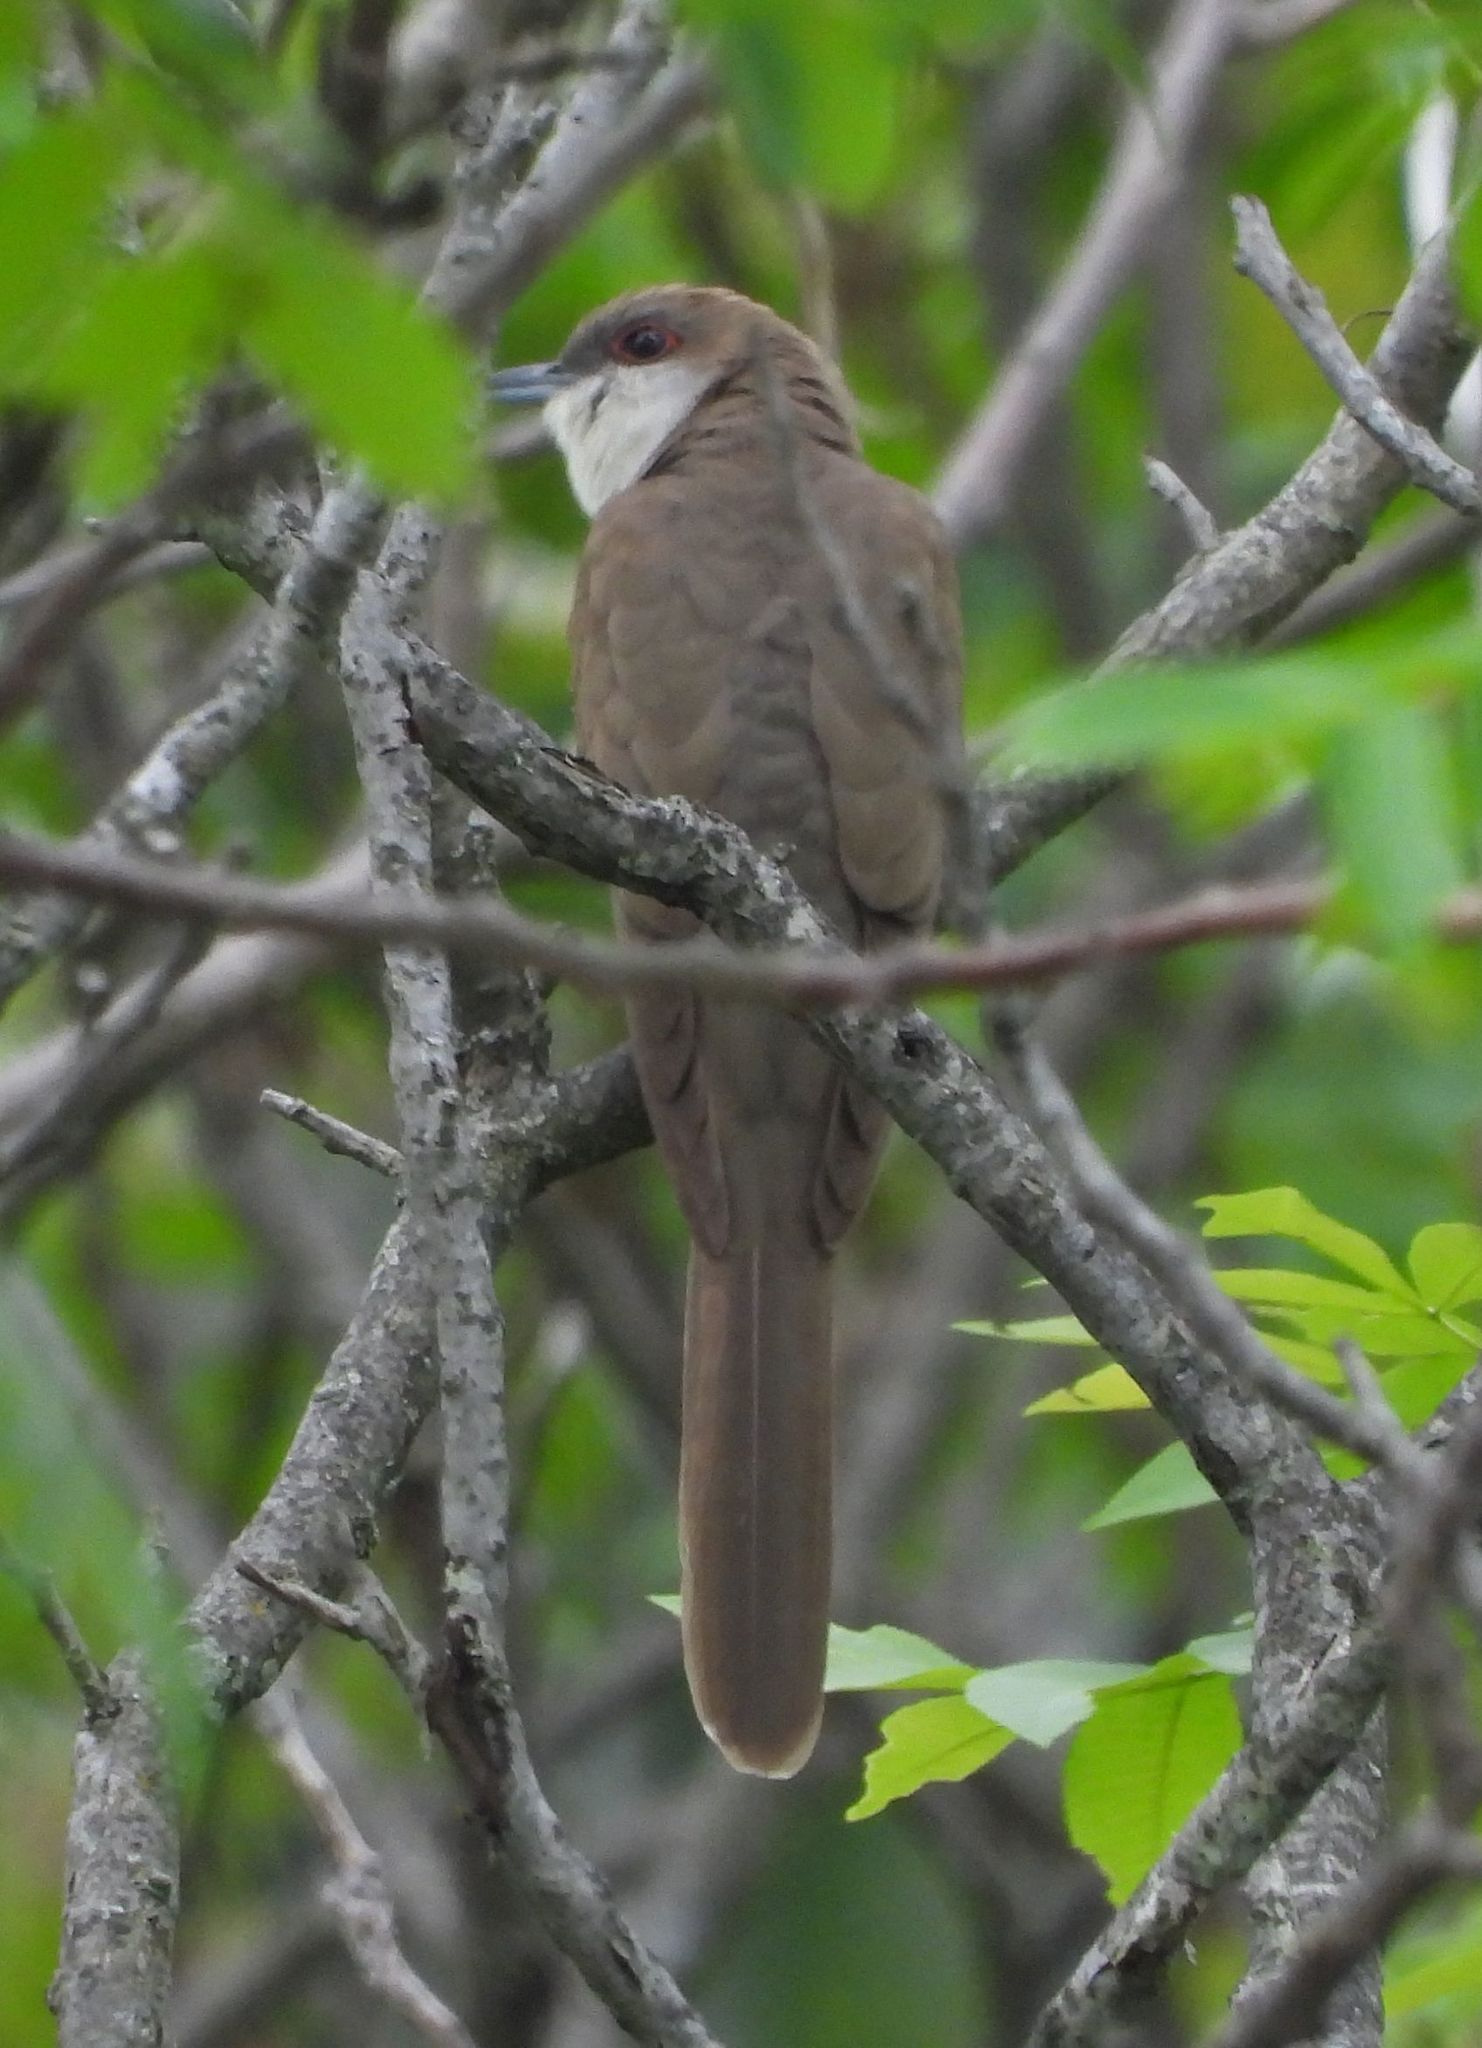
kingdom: Animalia
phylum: Chordata
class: Aves
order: Cuculiformes
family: Cuculidae
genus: Coccyzus
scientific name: Coccyzus erythropthalmus
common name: Black-billed cuckoo
